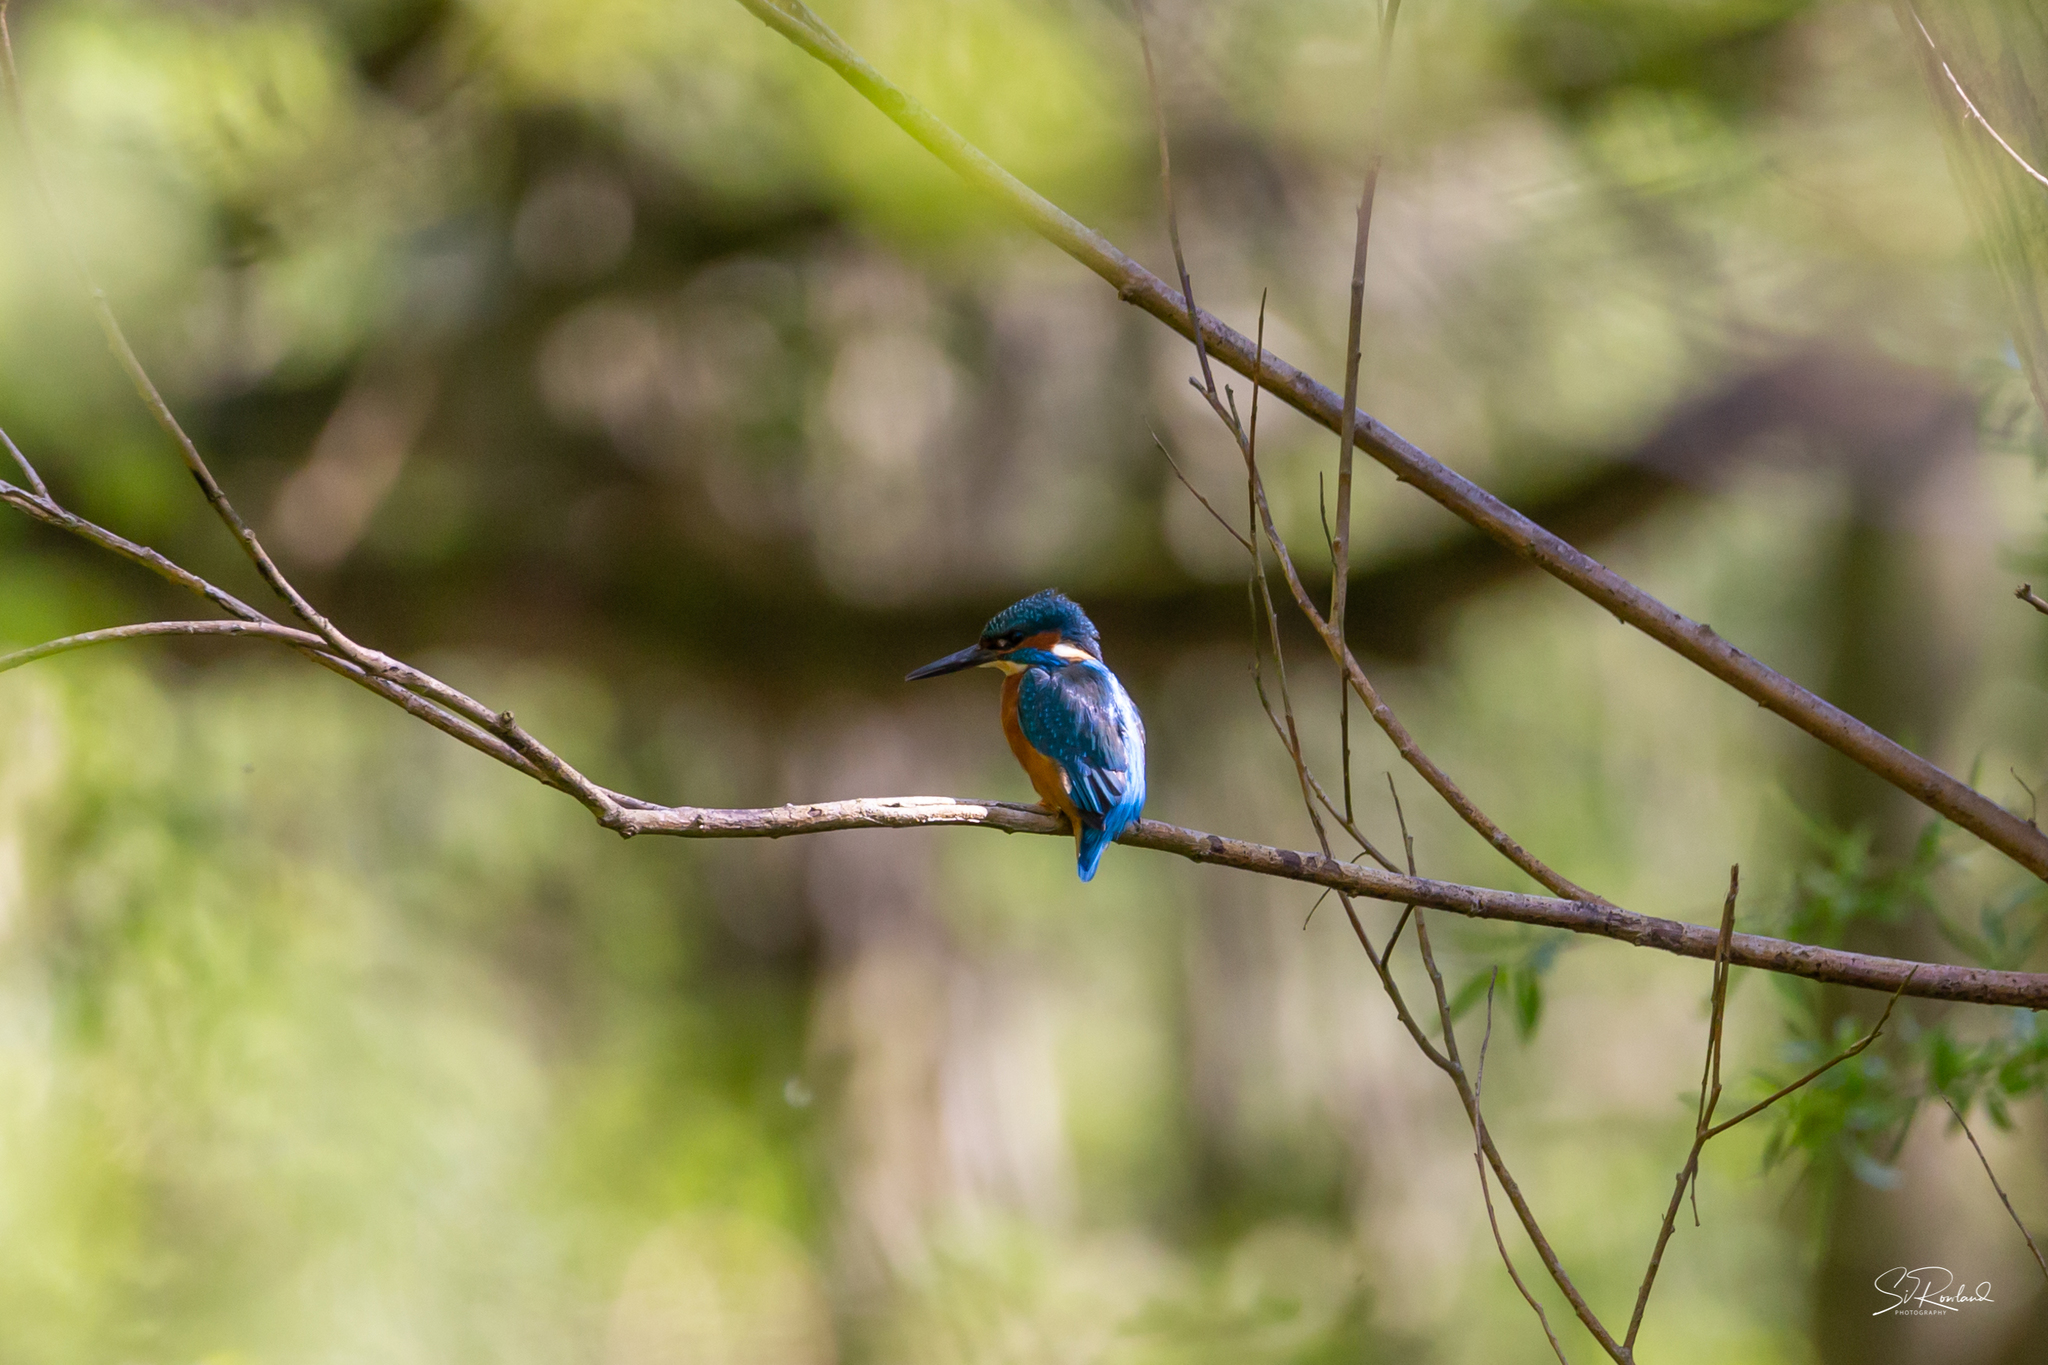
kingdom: Animalia
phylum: Chordata
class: Aves
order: Coraciiformes
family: Alcedinidae
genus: Alcedo
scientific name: Alcedo atthis
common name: Common kingfisher
